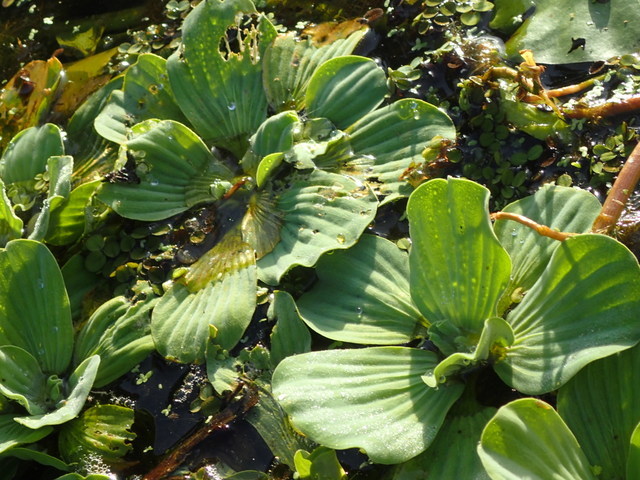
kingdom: Plantae
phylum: Tracheophyta
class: Liliopsida
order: Alismatales
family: Araceae
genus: Pistia
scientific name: Pistia stratiotes
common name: Water lettuce
